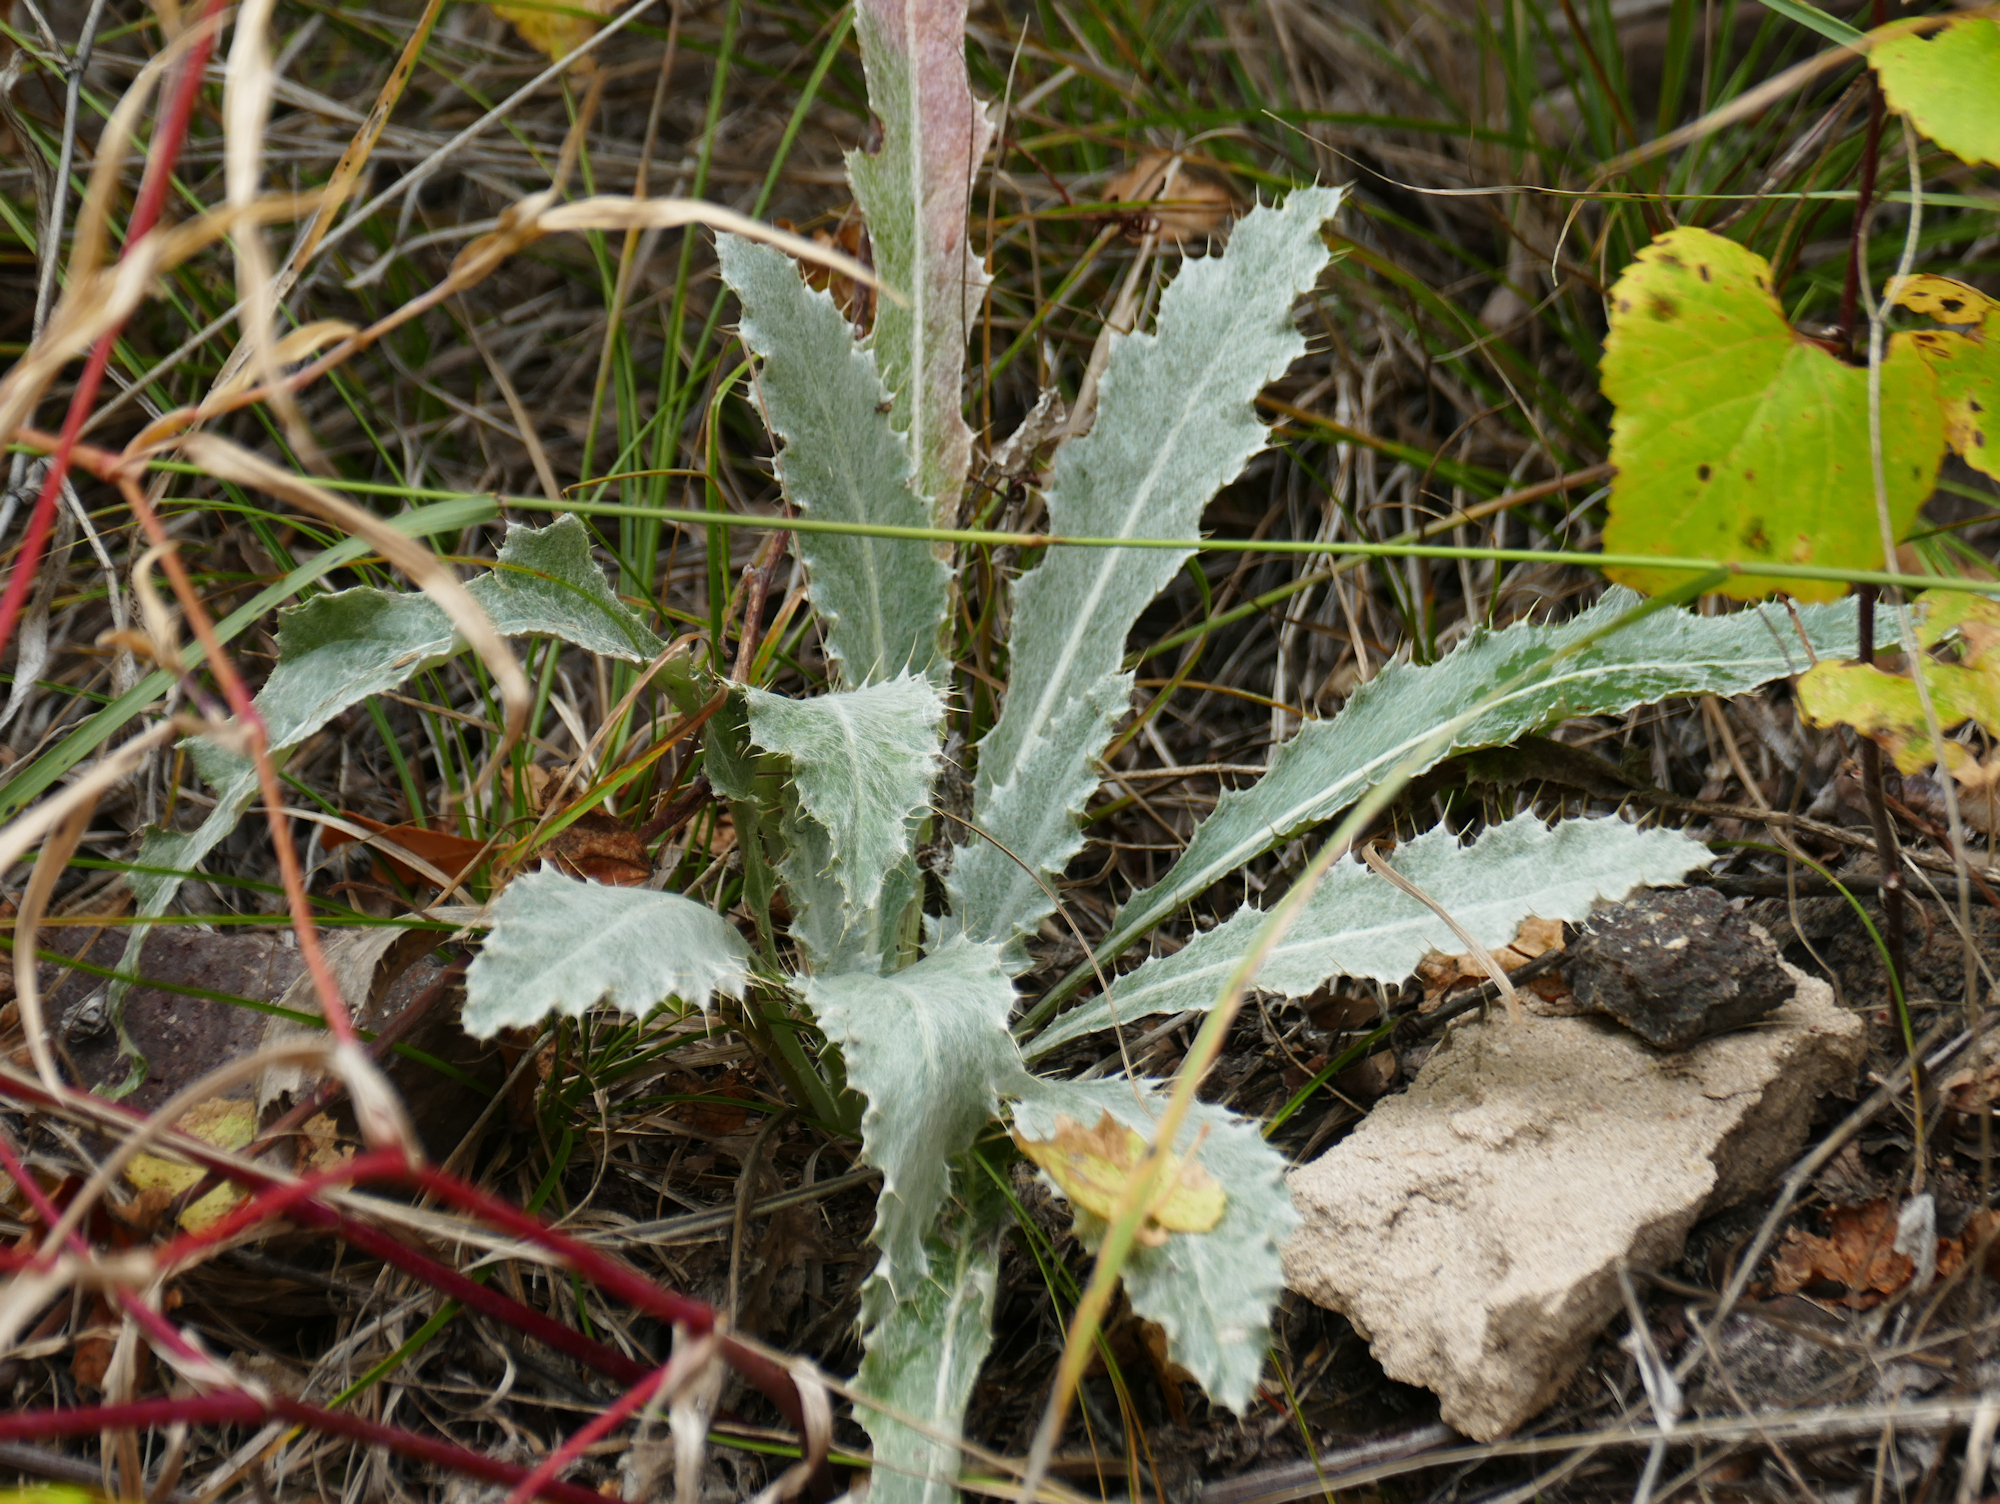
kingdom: Plantae
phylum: Tracheophyta
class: Magnoliopsida
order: Asterales
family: Asteraceae
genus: Cirsium
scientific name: Cirsium neomexicanum
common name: New mexico thistle
